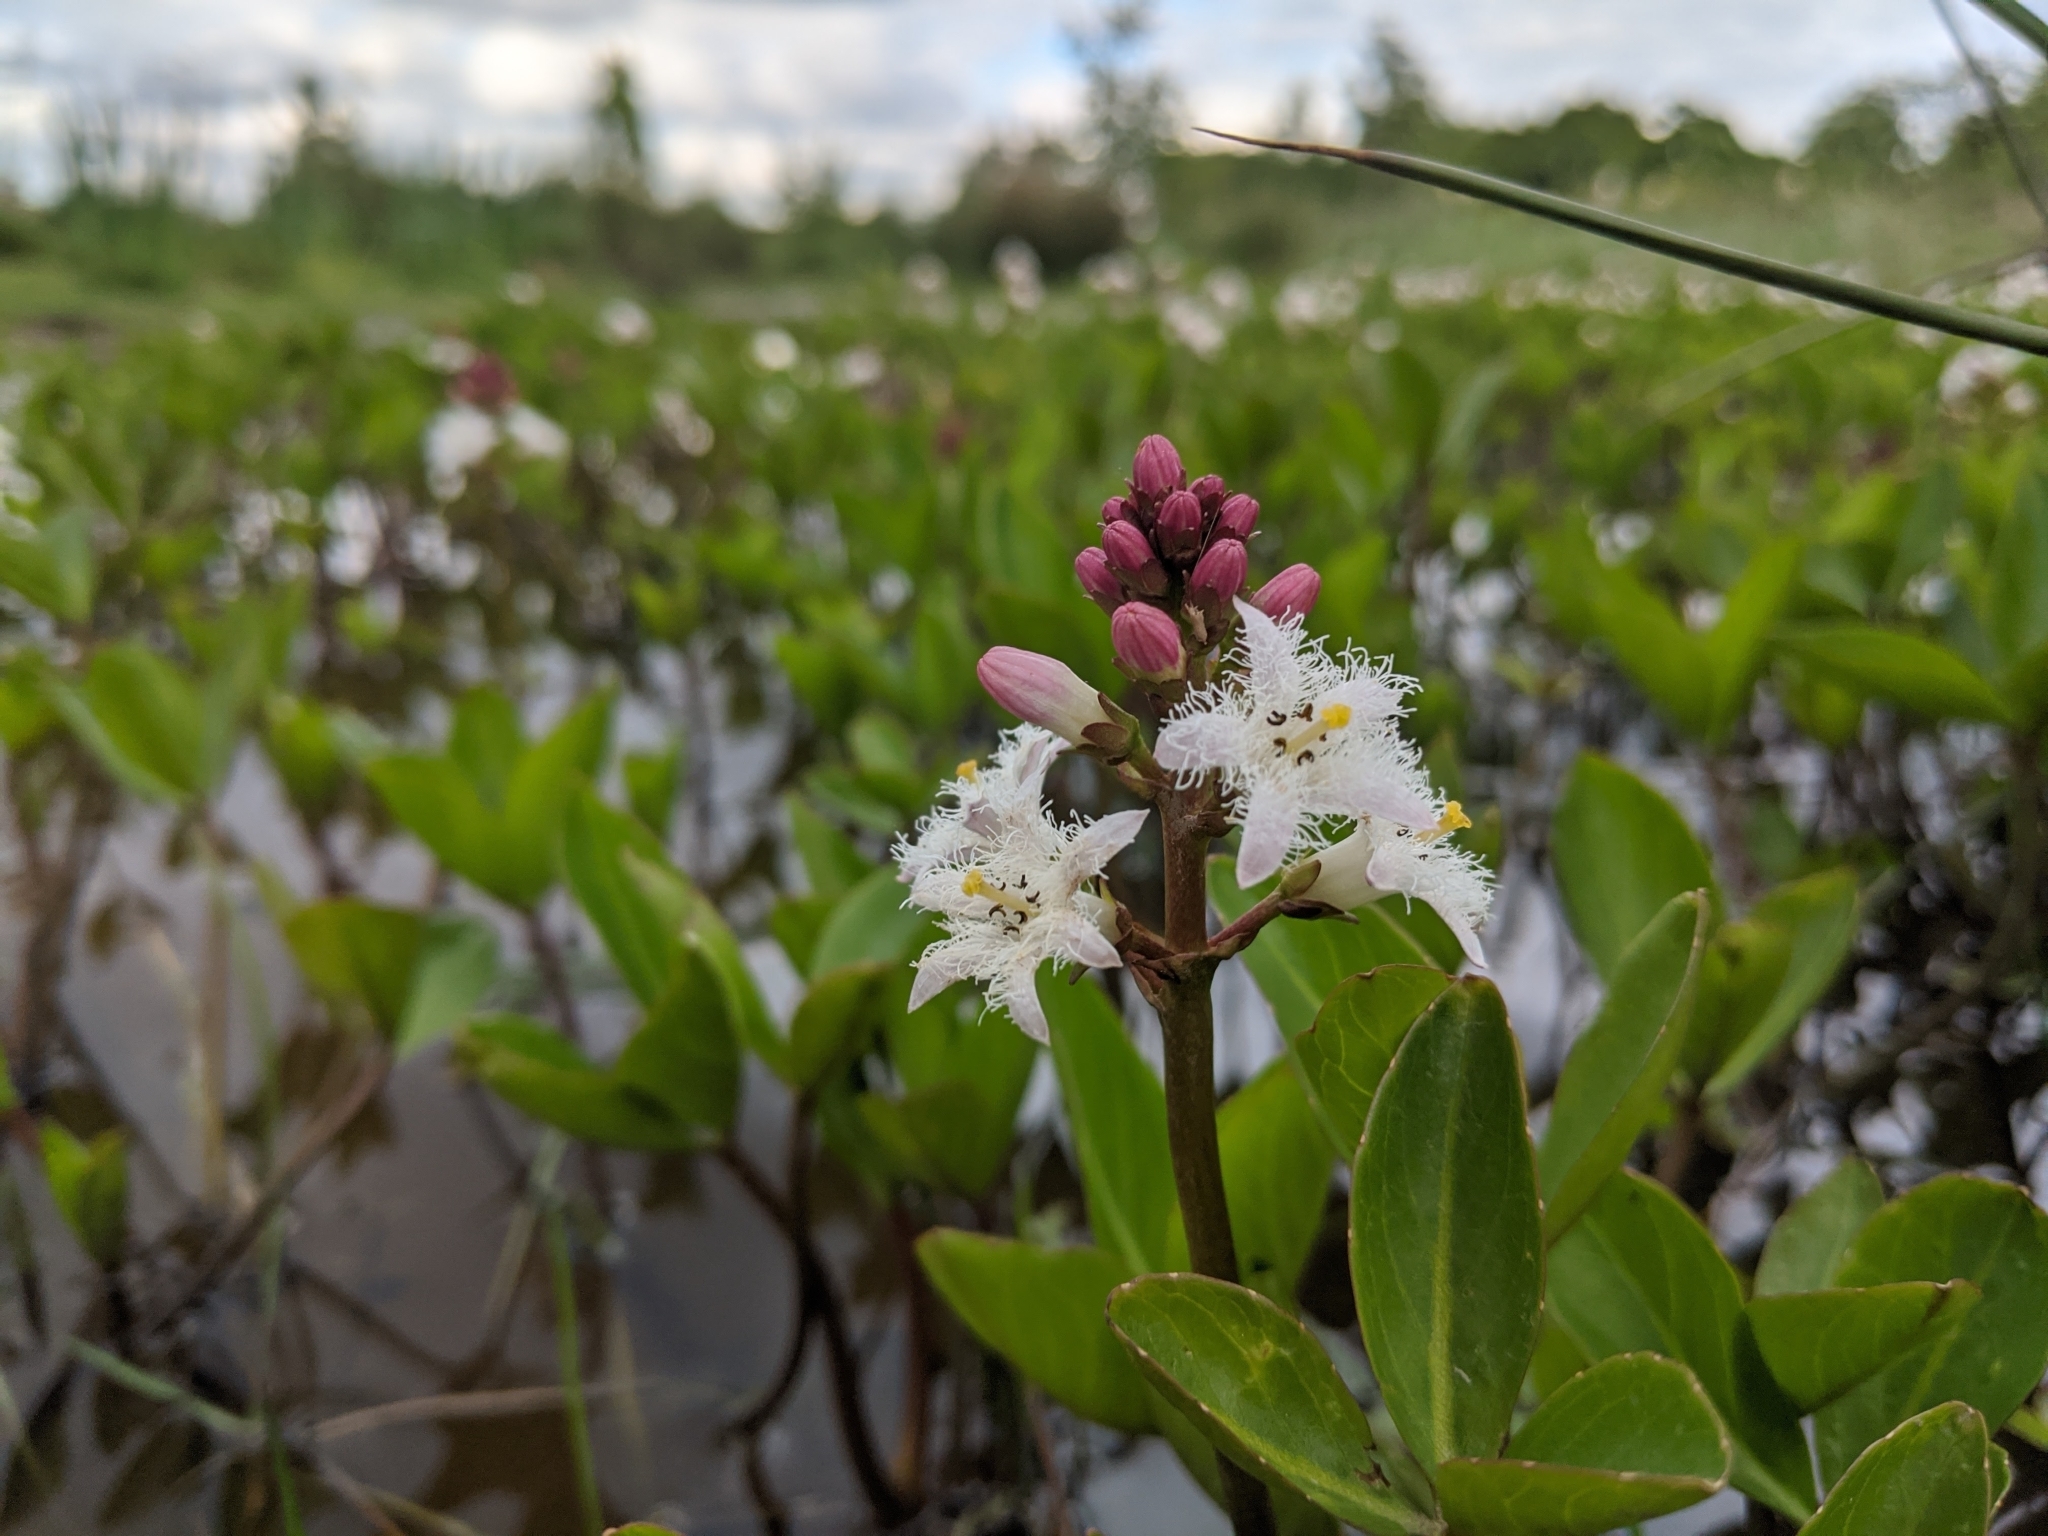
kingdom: Plantae
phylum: Tracheophyta
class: Magnoliopsida
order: Asterales
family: Menyanthaceae
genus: Menyanthes
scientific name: Menyanthes trifoliata
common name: Bogbean
